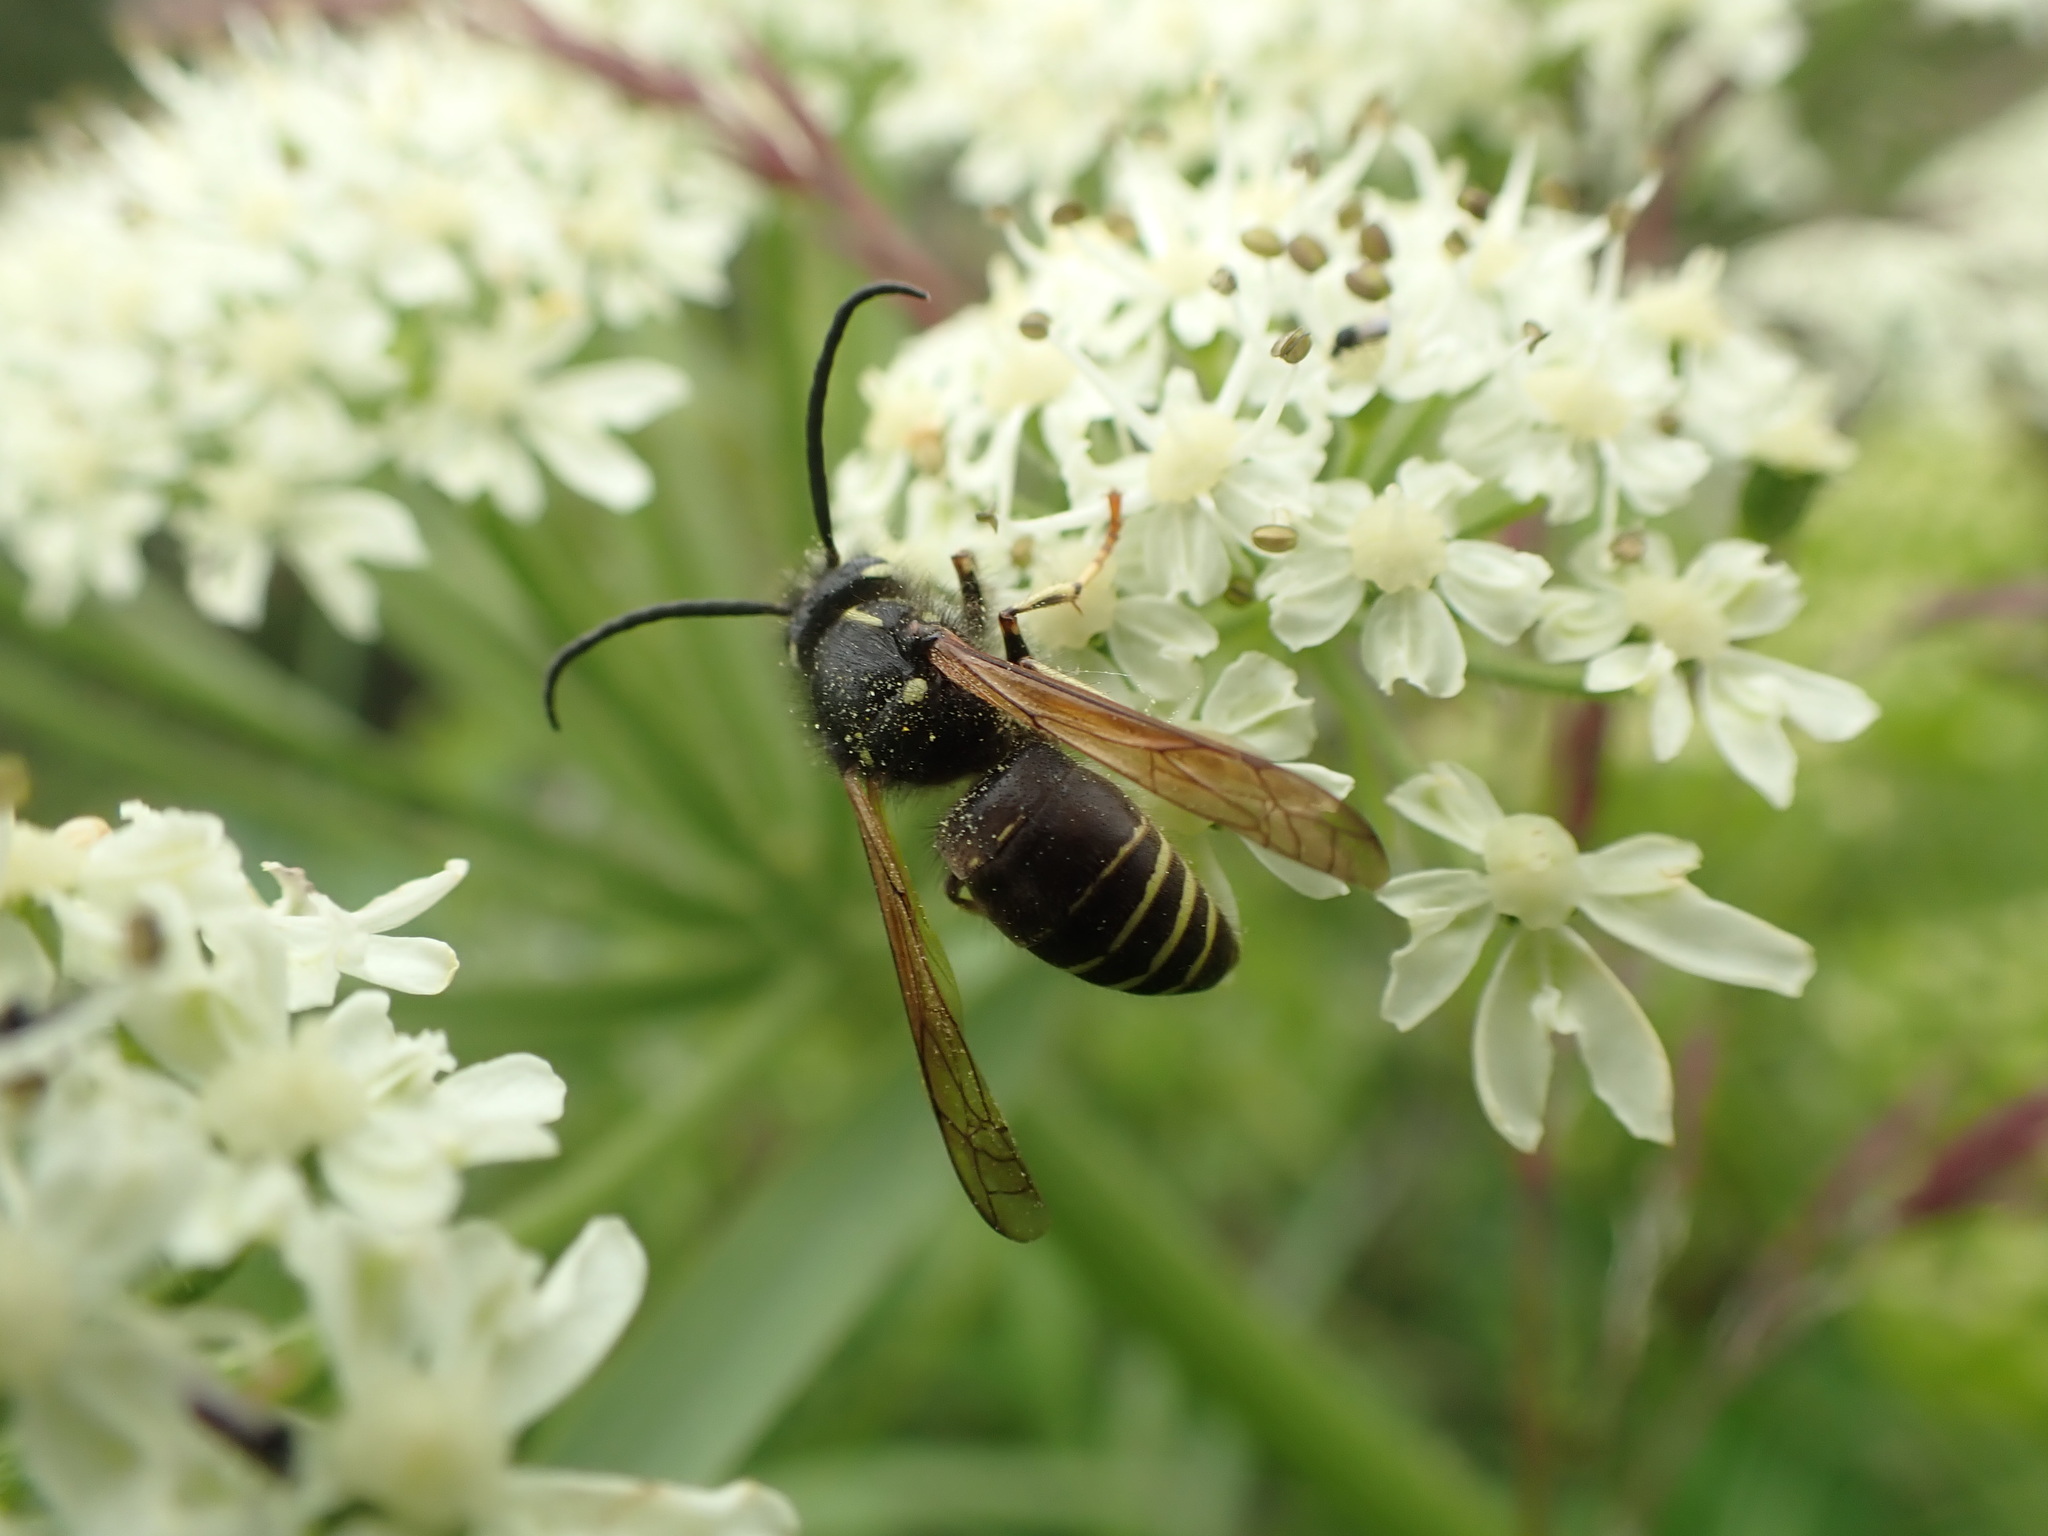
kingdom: Animalia
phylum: Arthropoda
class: Insecta
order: Hymenoptera
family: Vespidae
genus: Dolichovespula
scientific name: Dolichovespula adulterina
